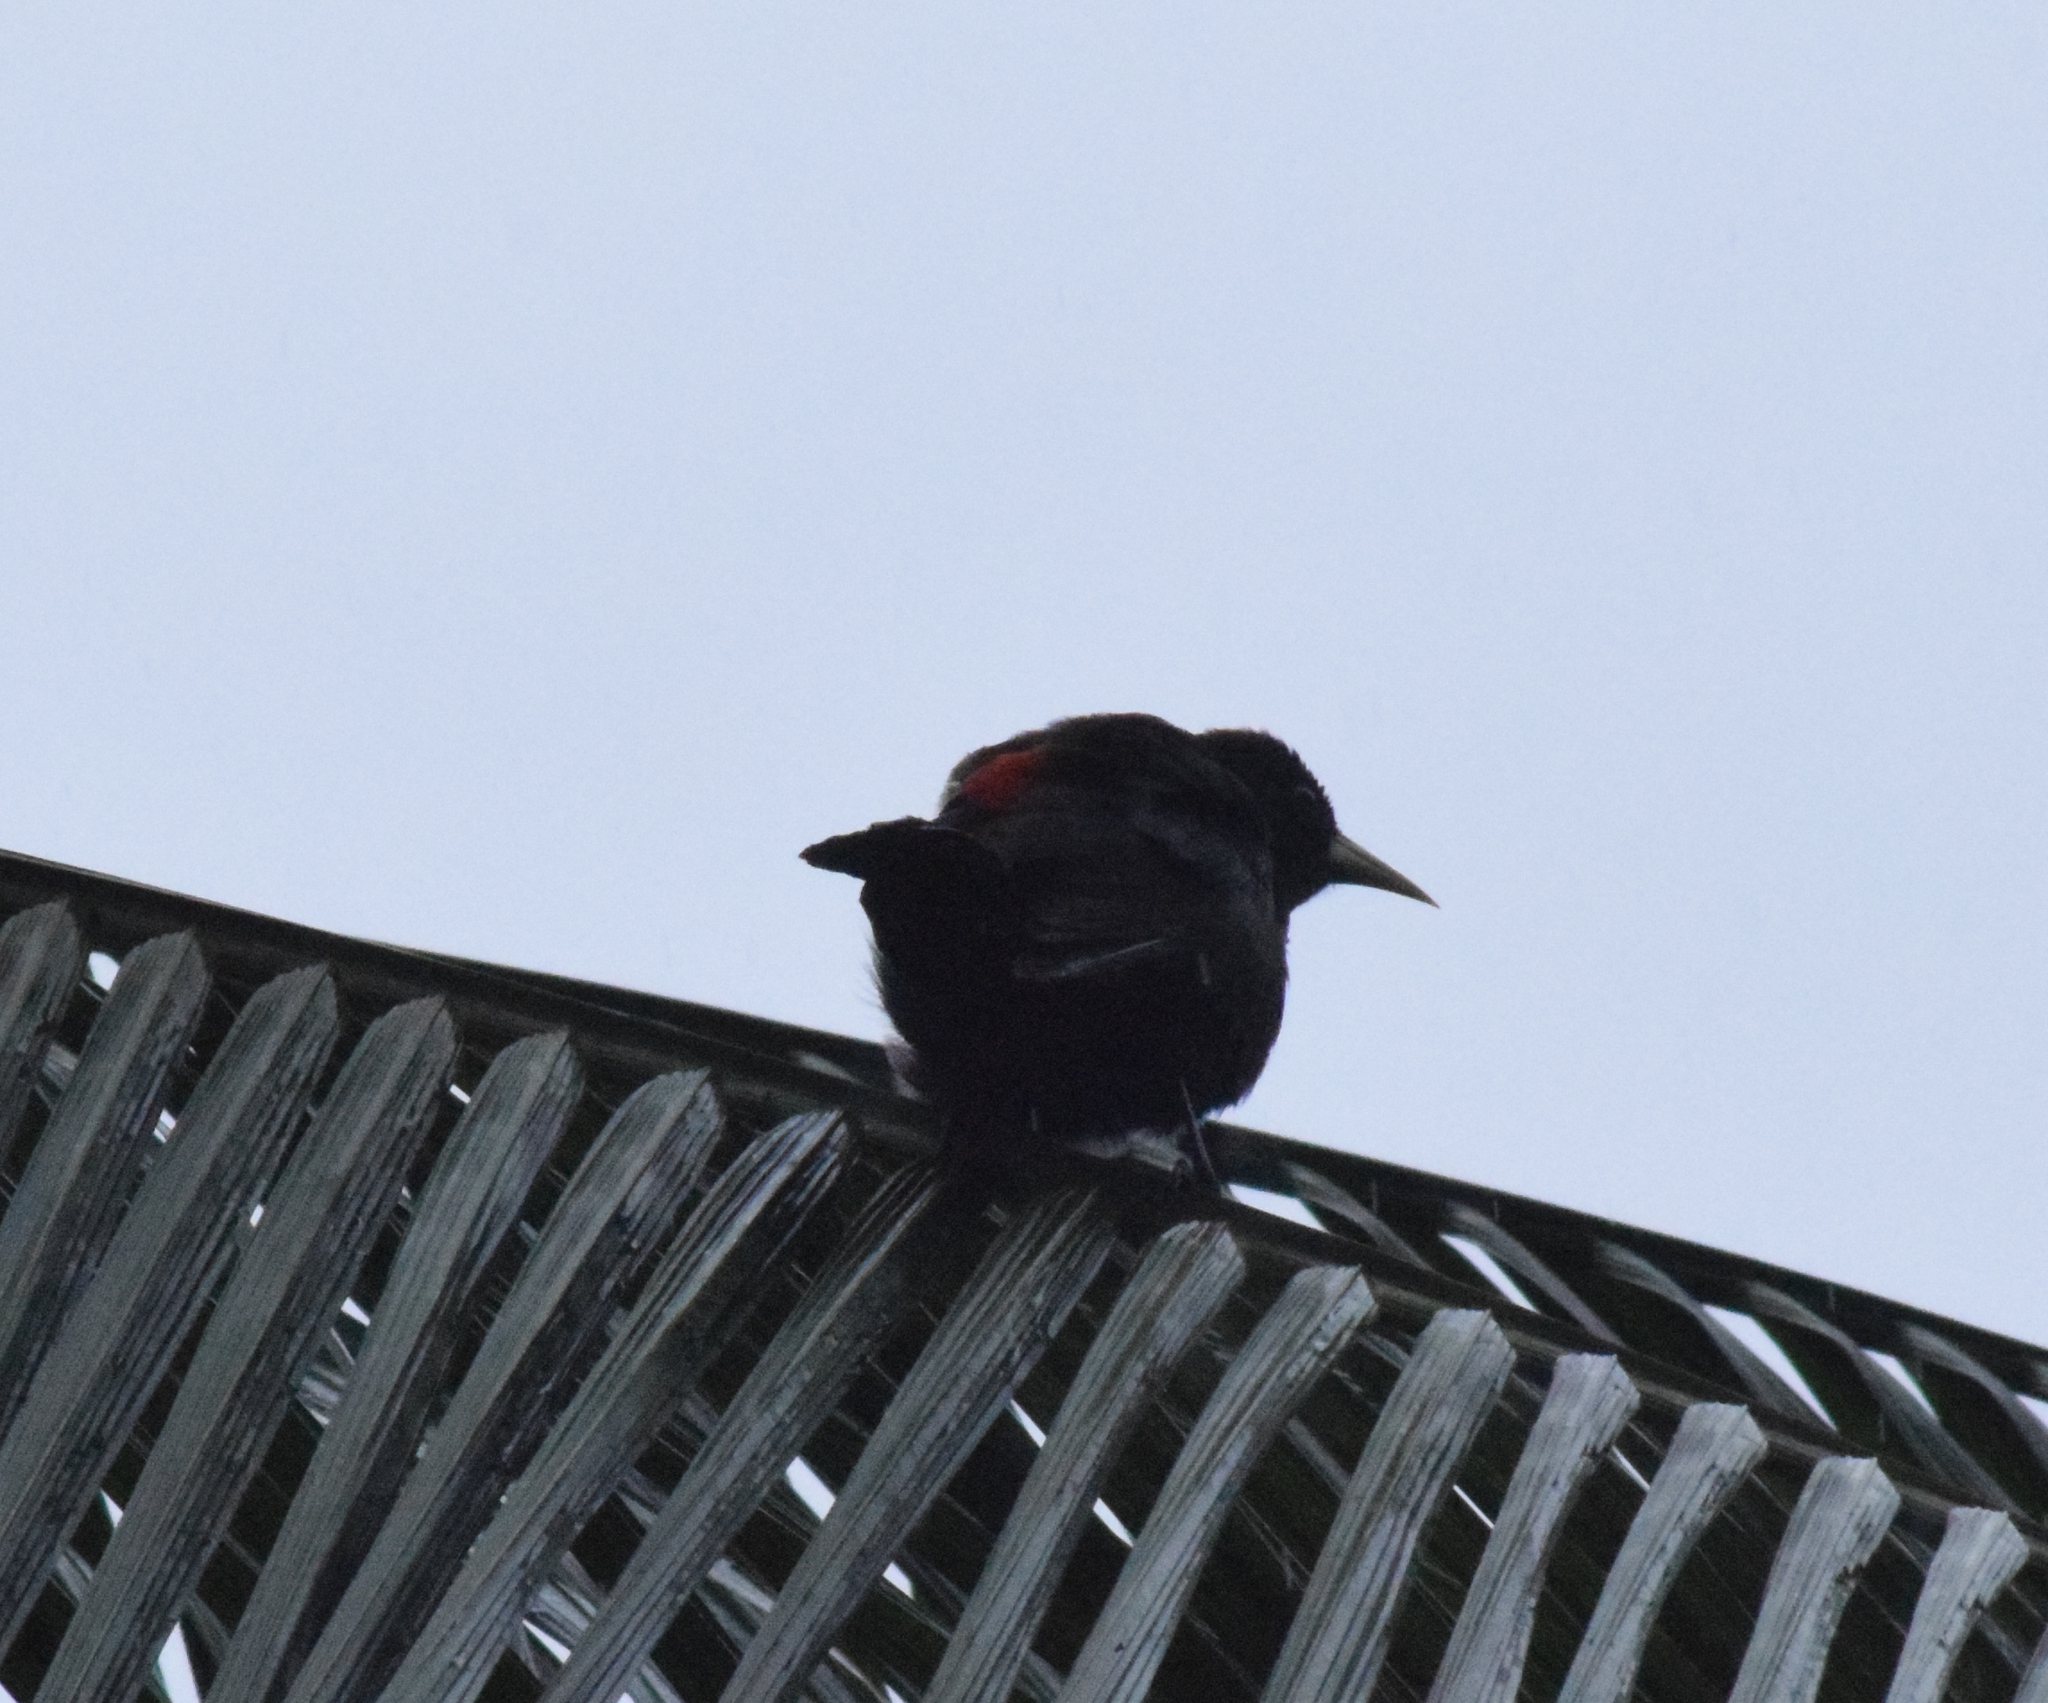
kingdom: Animalia
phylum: Chordata
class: Aves
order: Passeriformes
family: Icteridae
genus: Cacicus
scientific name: Cacicus haemorrhous
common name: Red-rumped cacique
